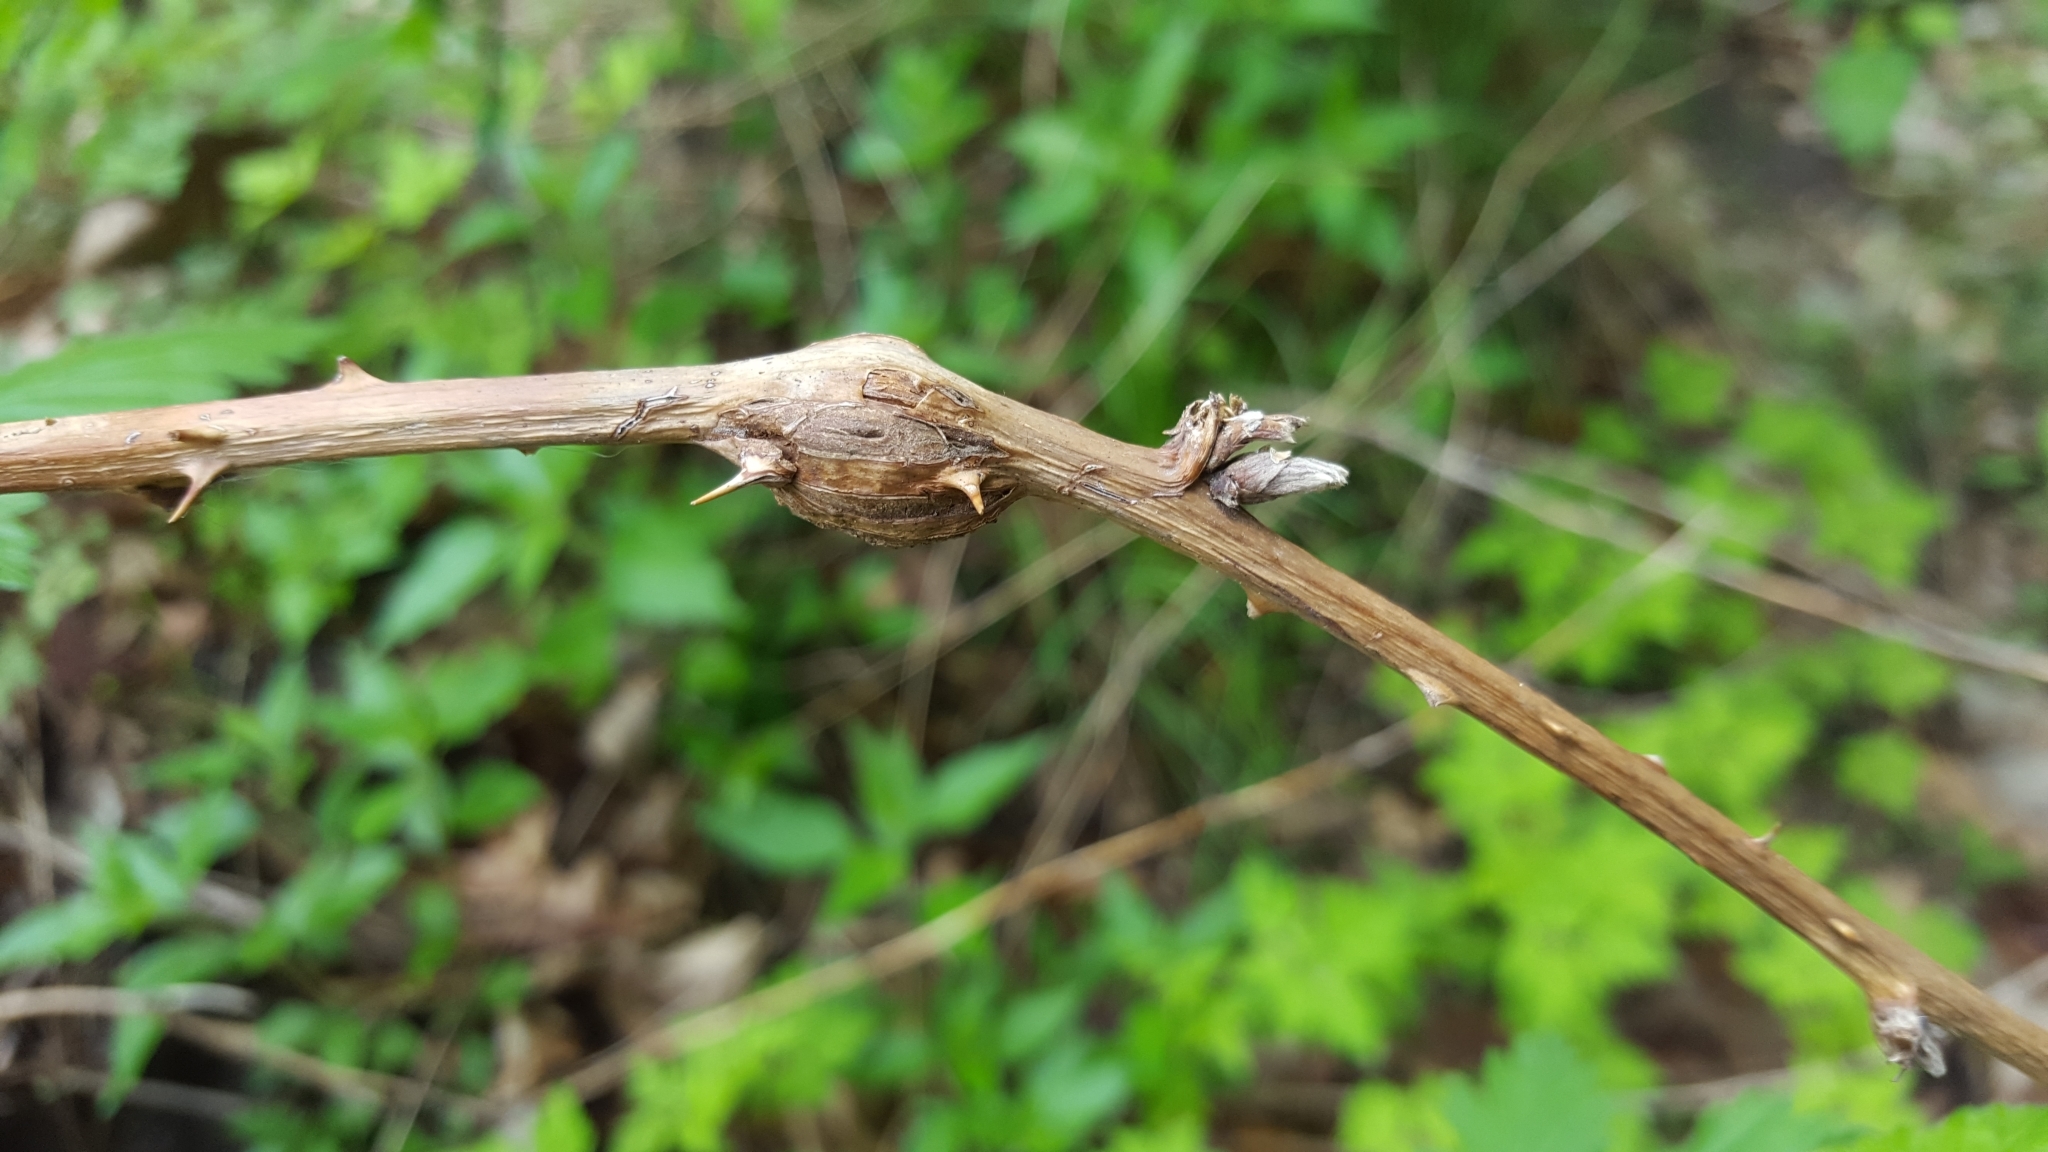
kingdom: Animalia
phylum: Arthropoda
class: Insecta
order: Diptera
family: Cecidomyiidae
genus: Lasioptera
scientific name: Lasioptera rubi
